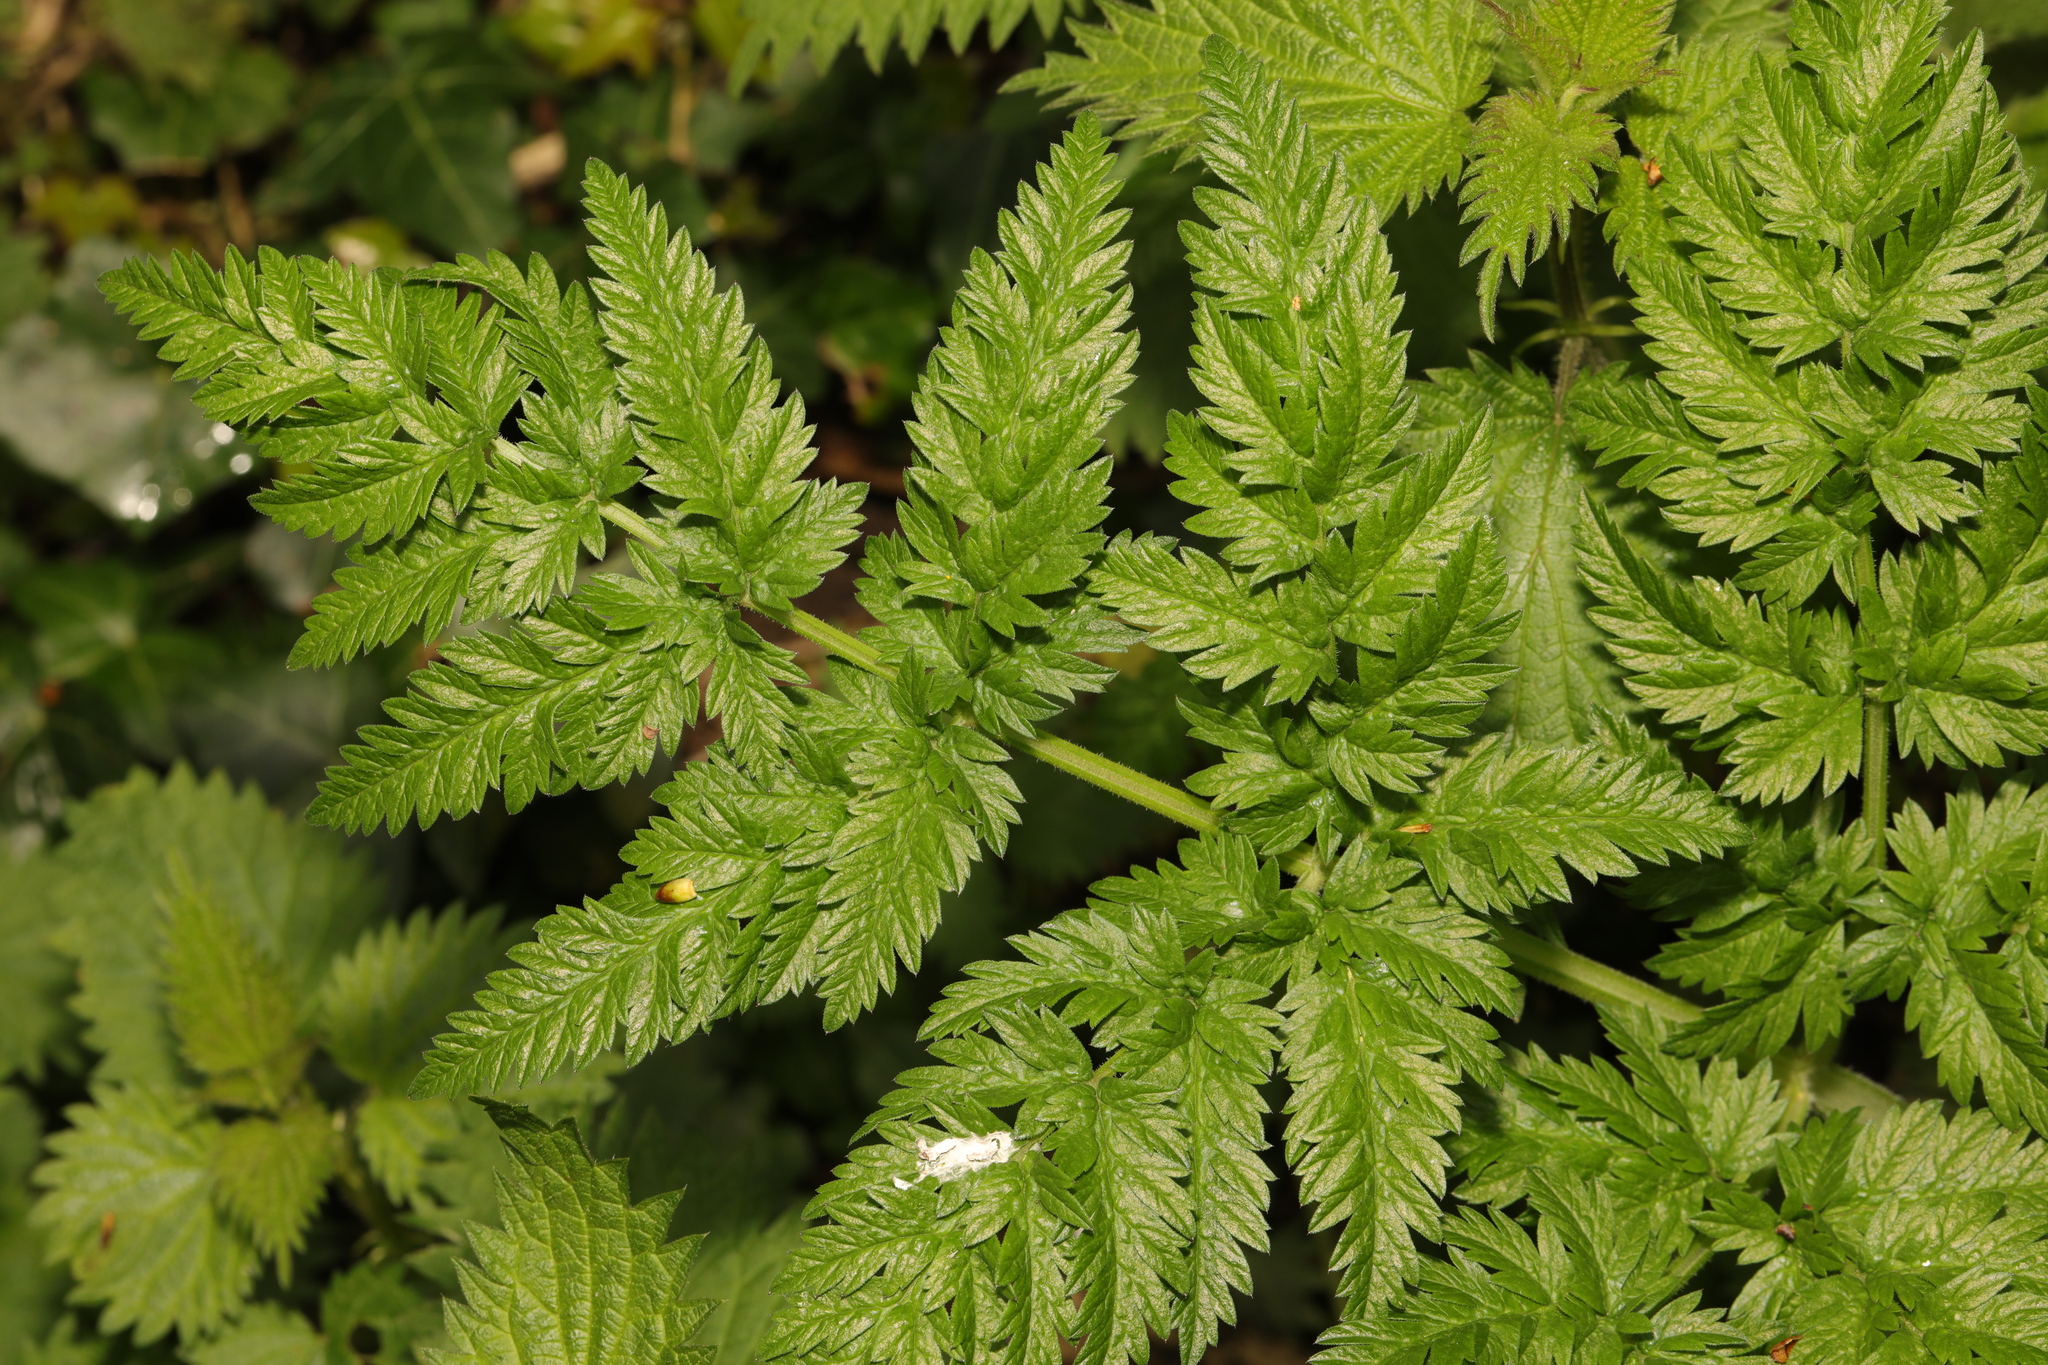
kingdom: Plantae
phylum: Tracheophyta
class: Magnoliopsida
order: Apiales
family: Apiaceae
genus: Anthriscus
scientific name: Anthriscus sylvestris
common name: Cow parsley
